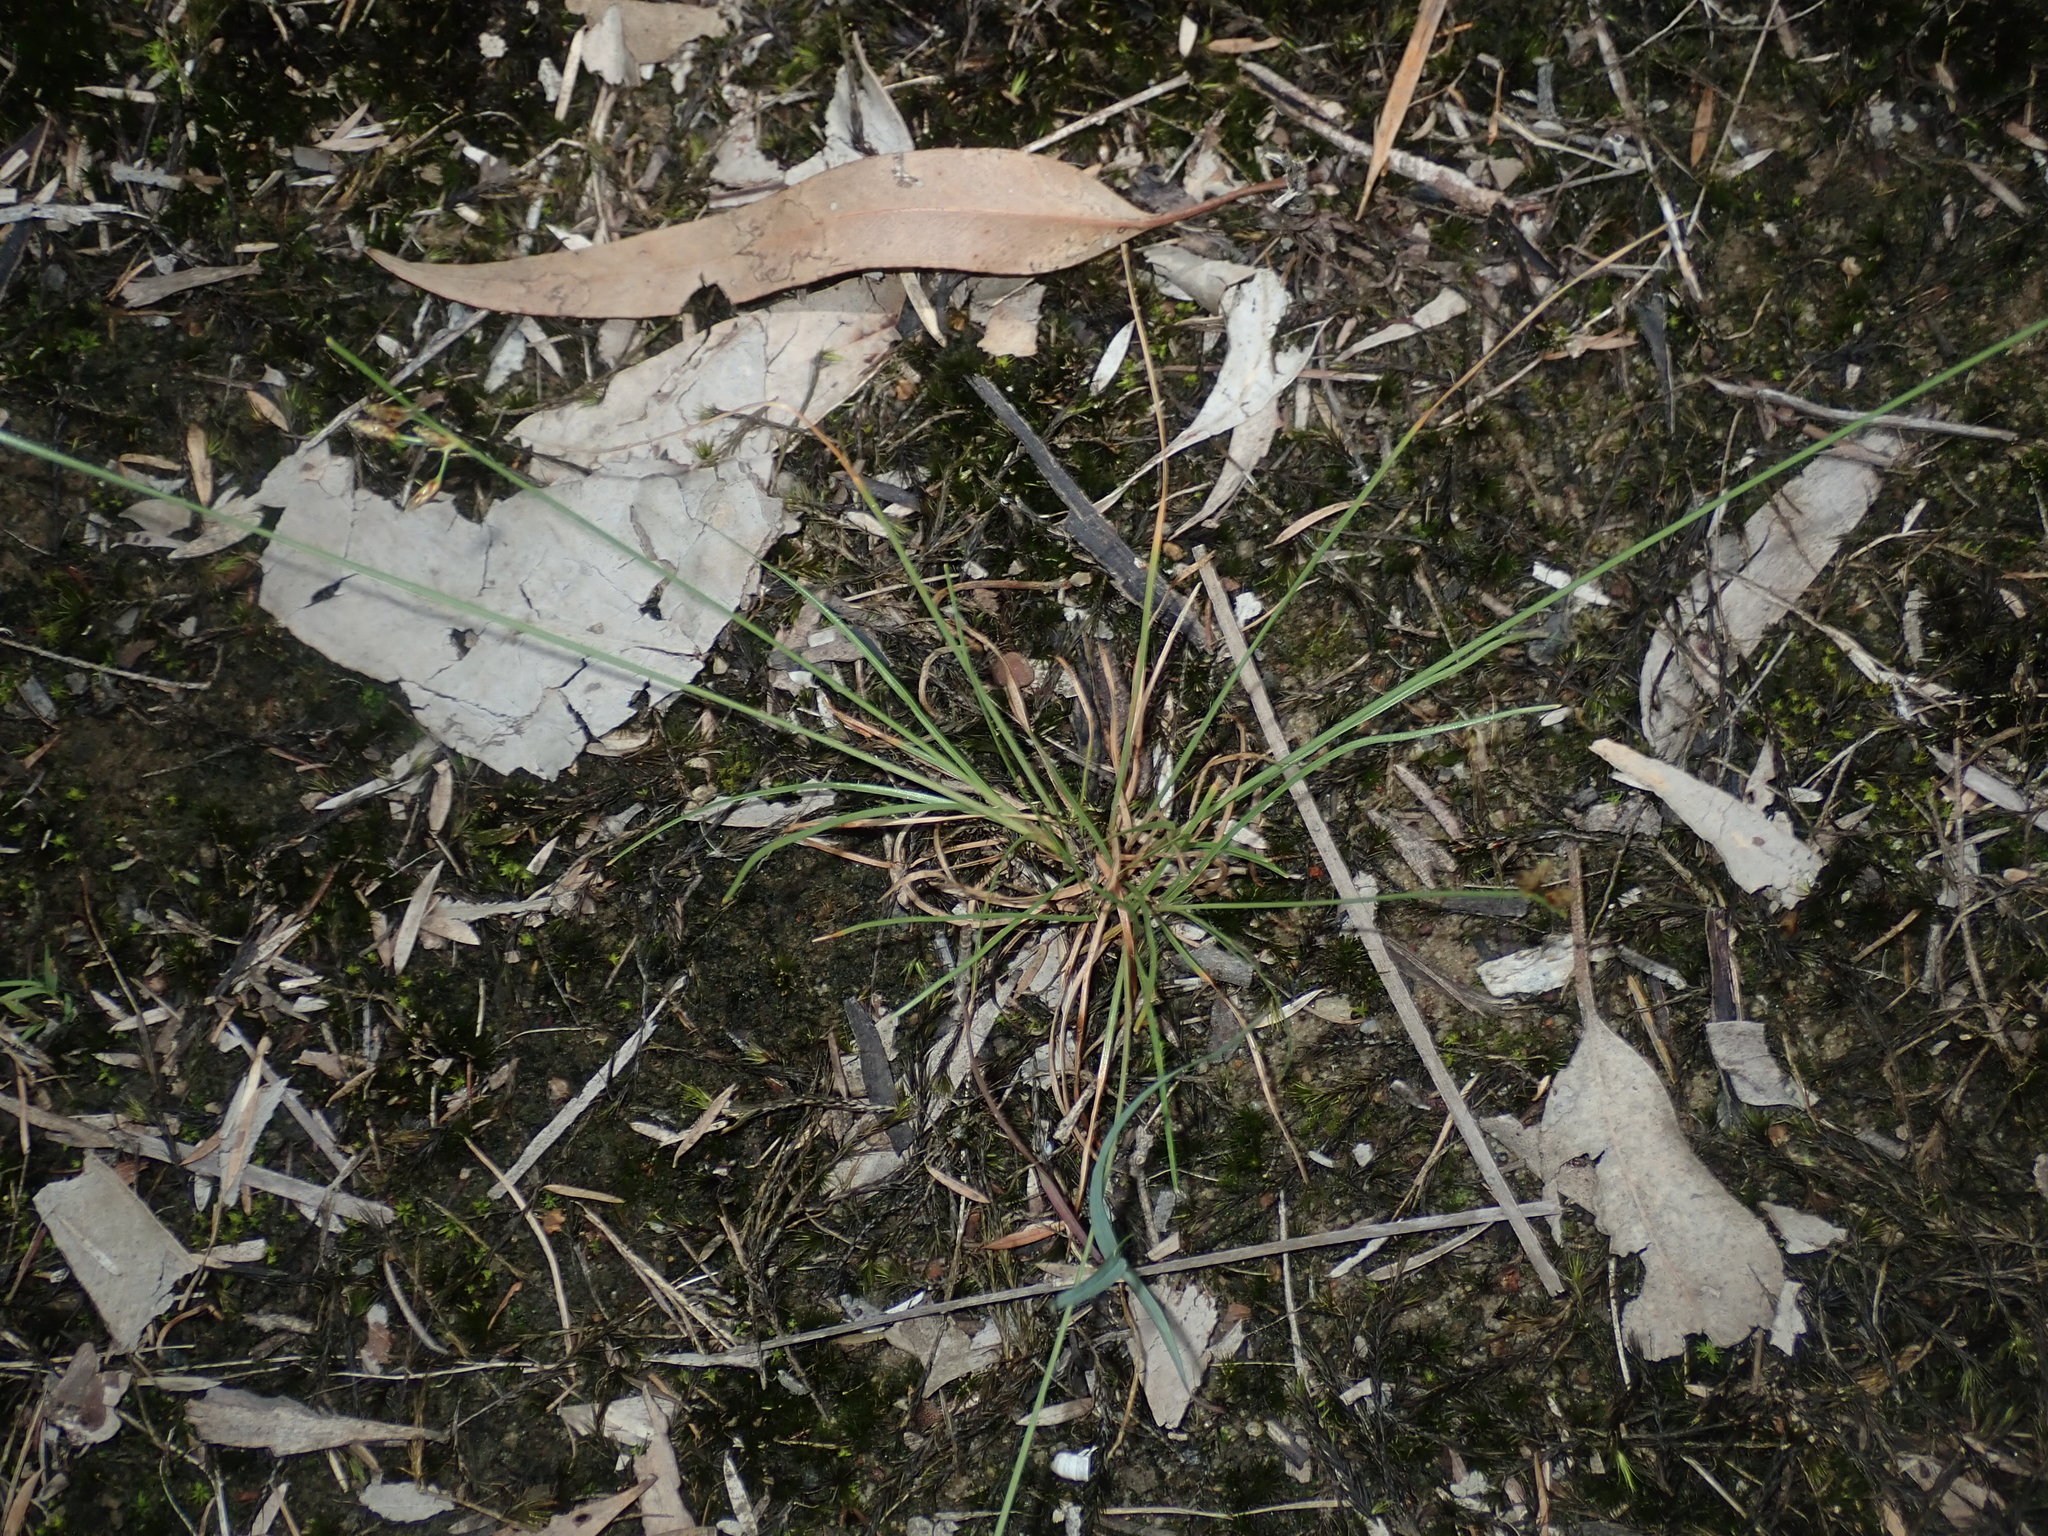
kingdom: Plantae
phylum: Tracheophyta
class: Liliopsida
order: Poales
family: Cyperaceae
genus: Fimbristylis
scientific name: Fimbristylis dichotoma
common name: Forked fimbry
